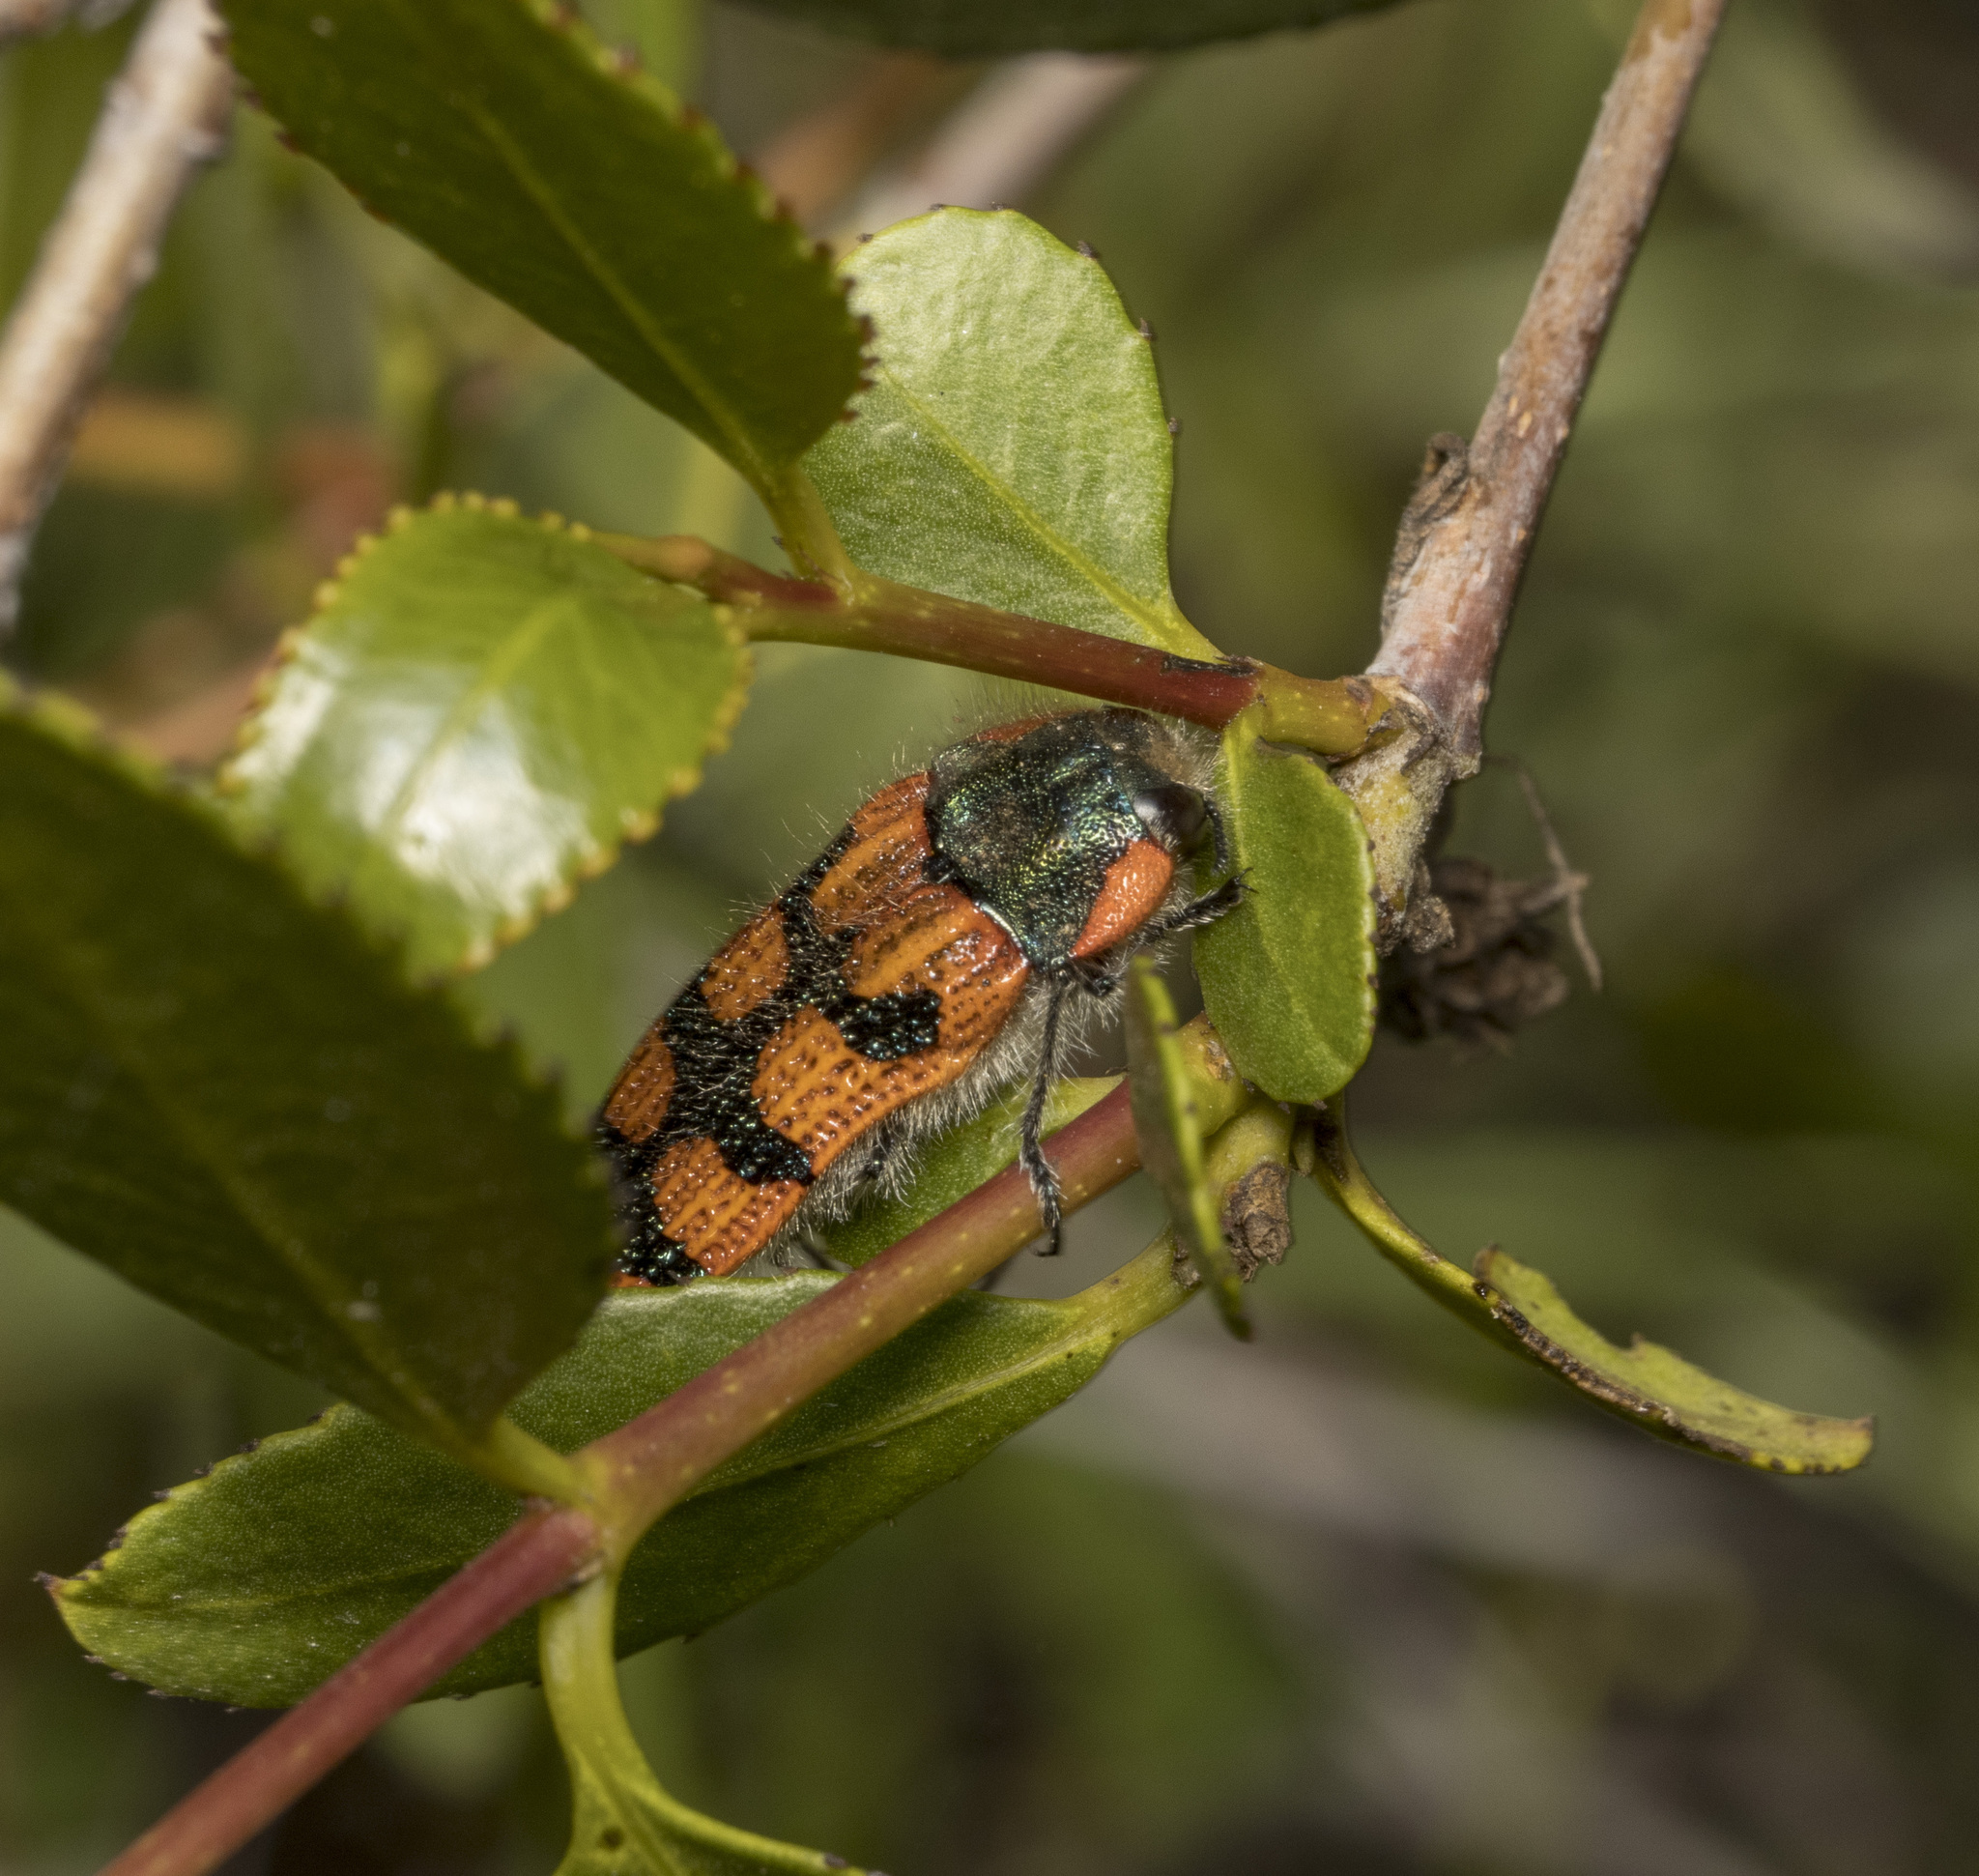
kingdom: Animalia
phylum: Arthropoda
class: Insecta
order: Coleoptera
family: Buprestidae
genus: Lasionota
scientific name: Lasionota pictus
